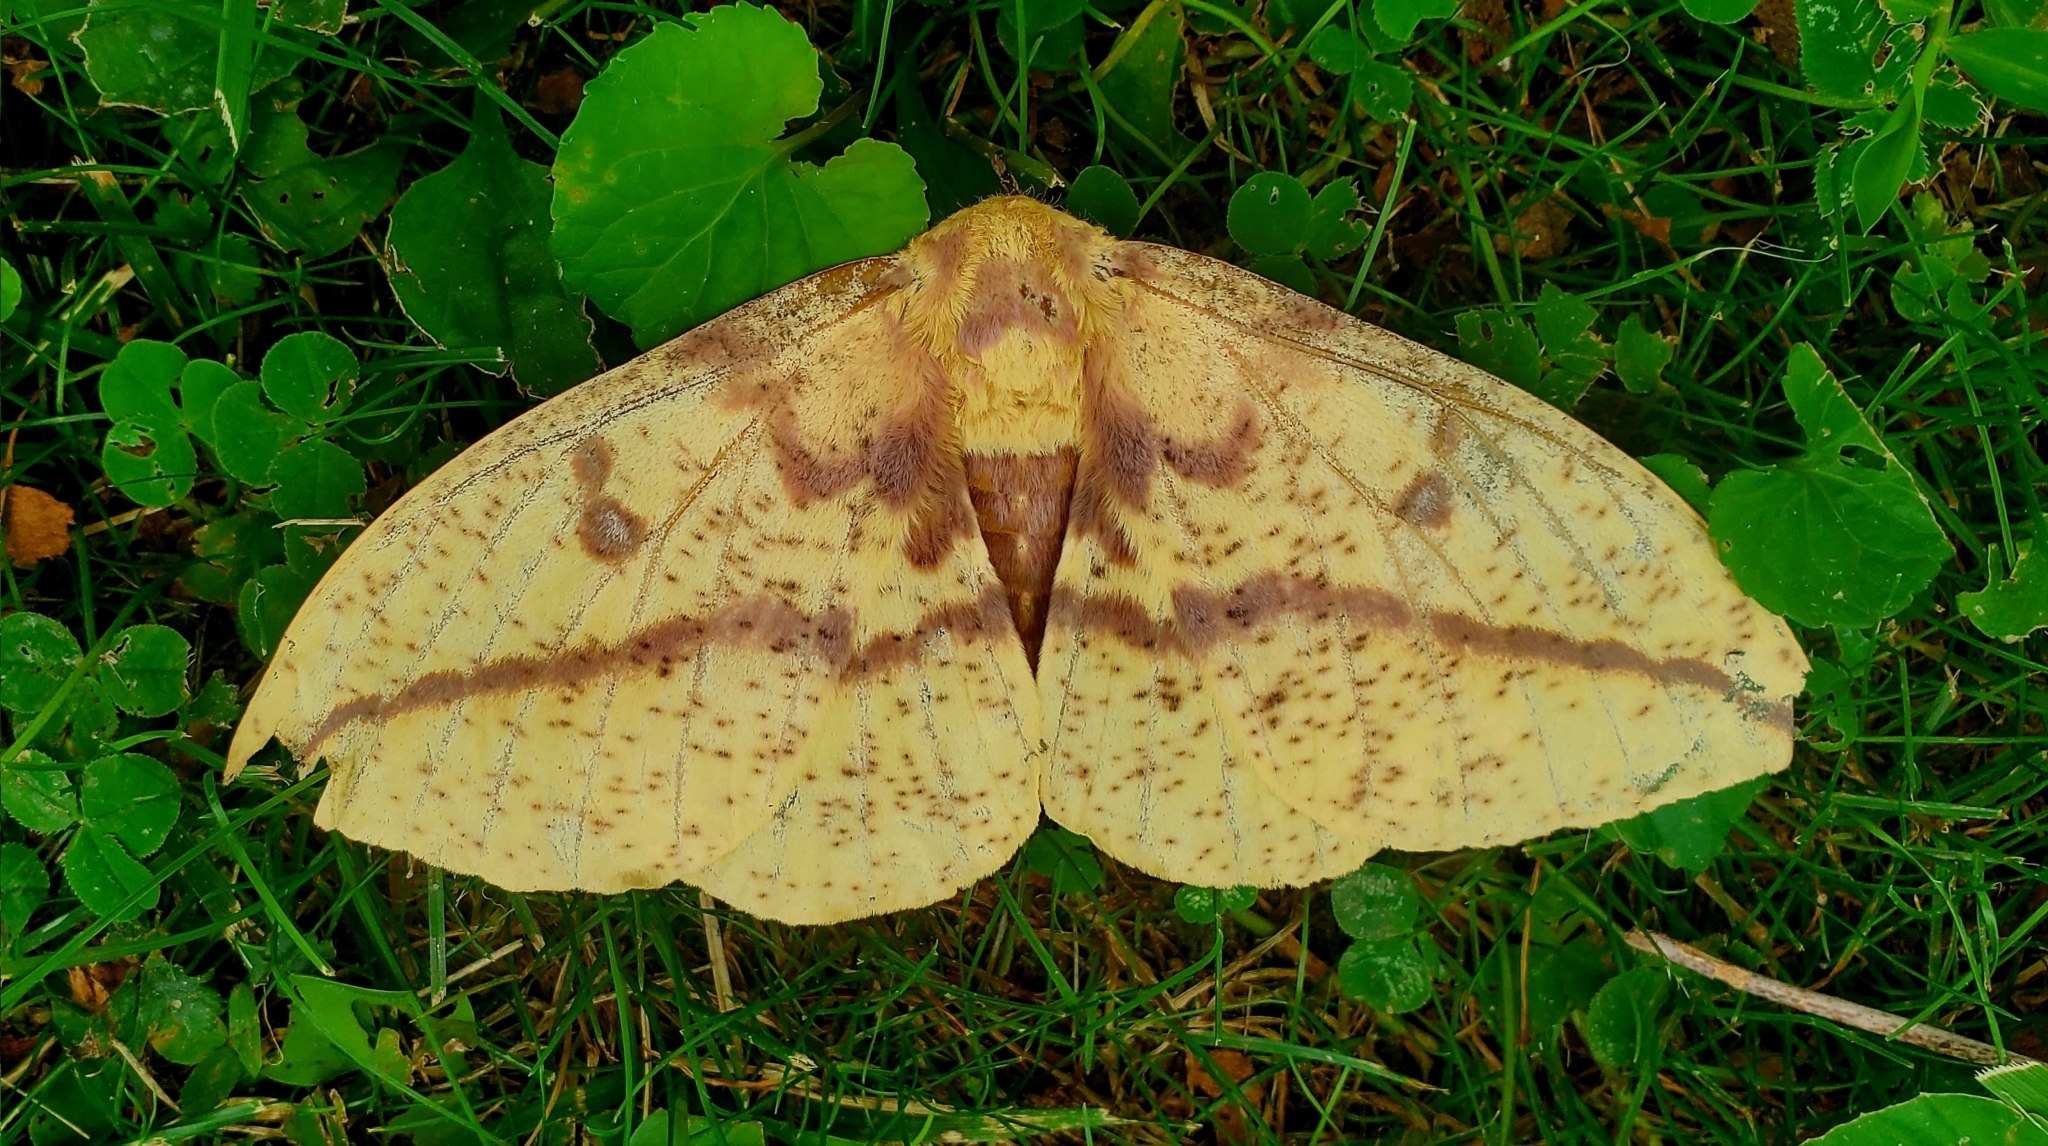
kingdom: Animalia
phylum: Arthropoda
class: Insecta
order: Lepidoptera
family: Saturniidae
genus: Eacles
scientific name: Eacles imperialis
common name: Imperial moth
